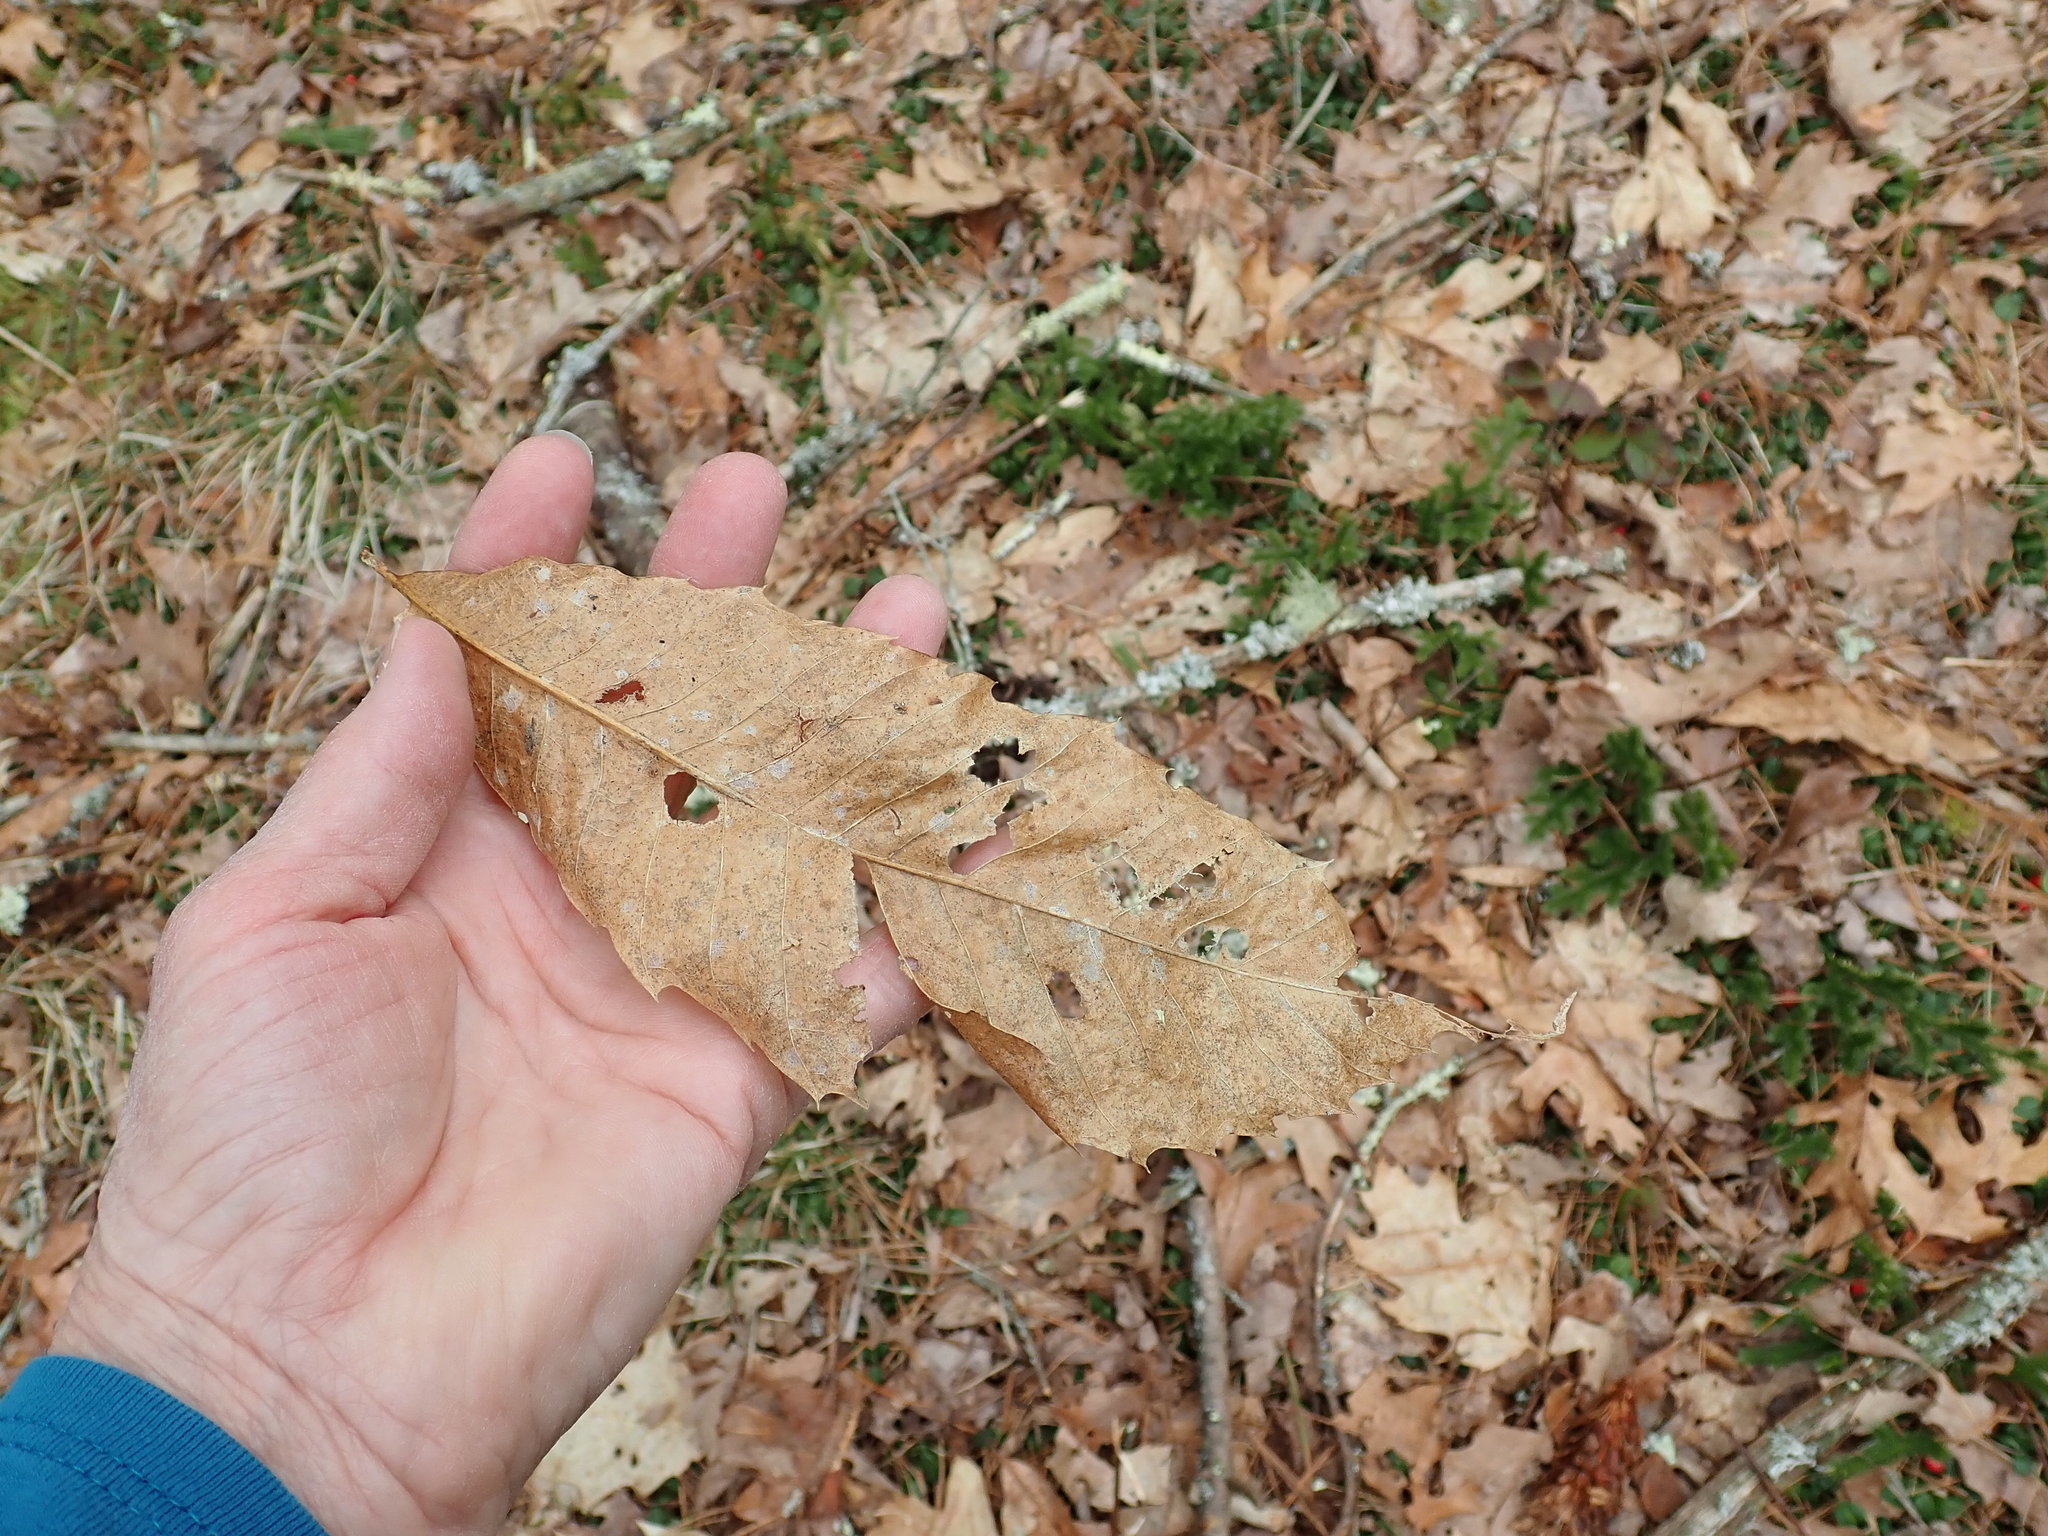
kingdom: Plantae
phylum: Tracheophyta
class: Magnoliopsida
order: Fagales
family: Fagaceae
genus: Castanea
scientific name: Castanea dentata
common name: American chestnut
